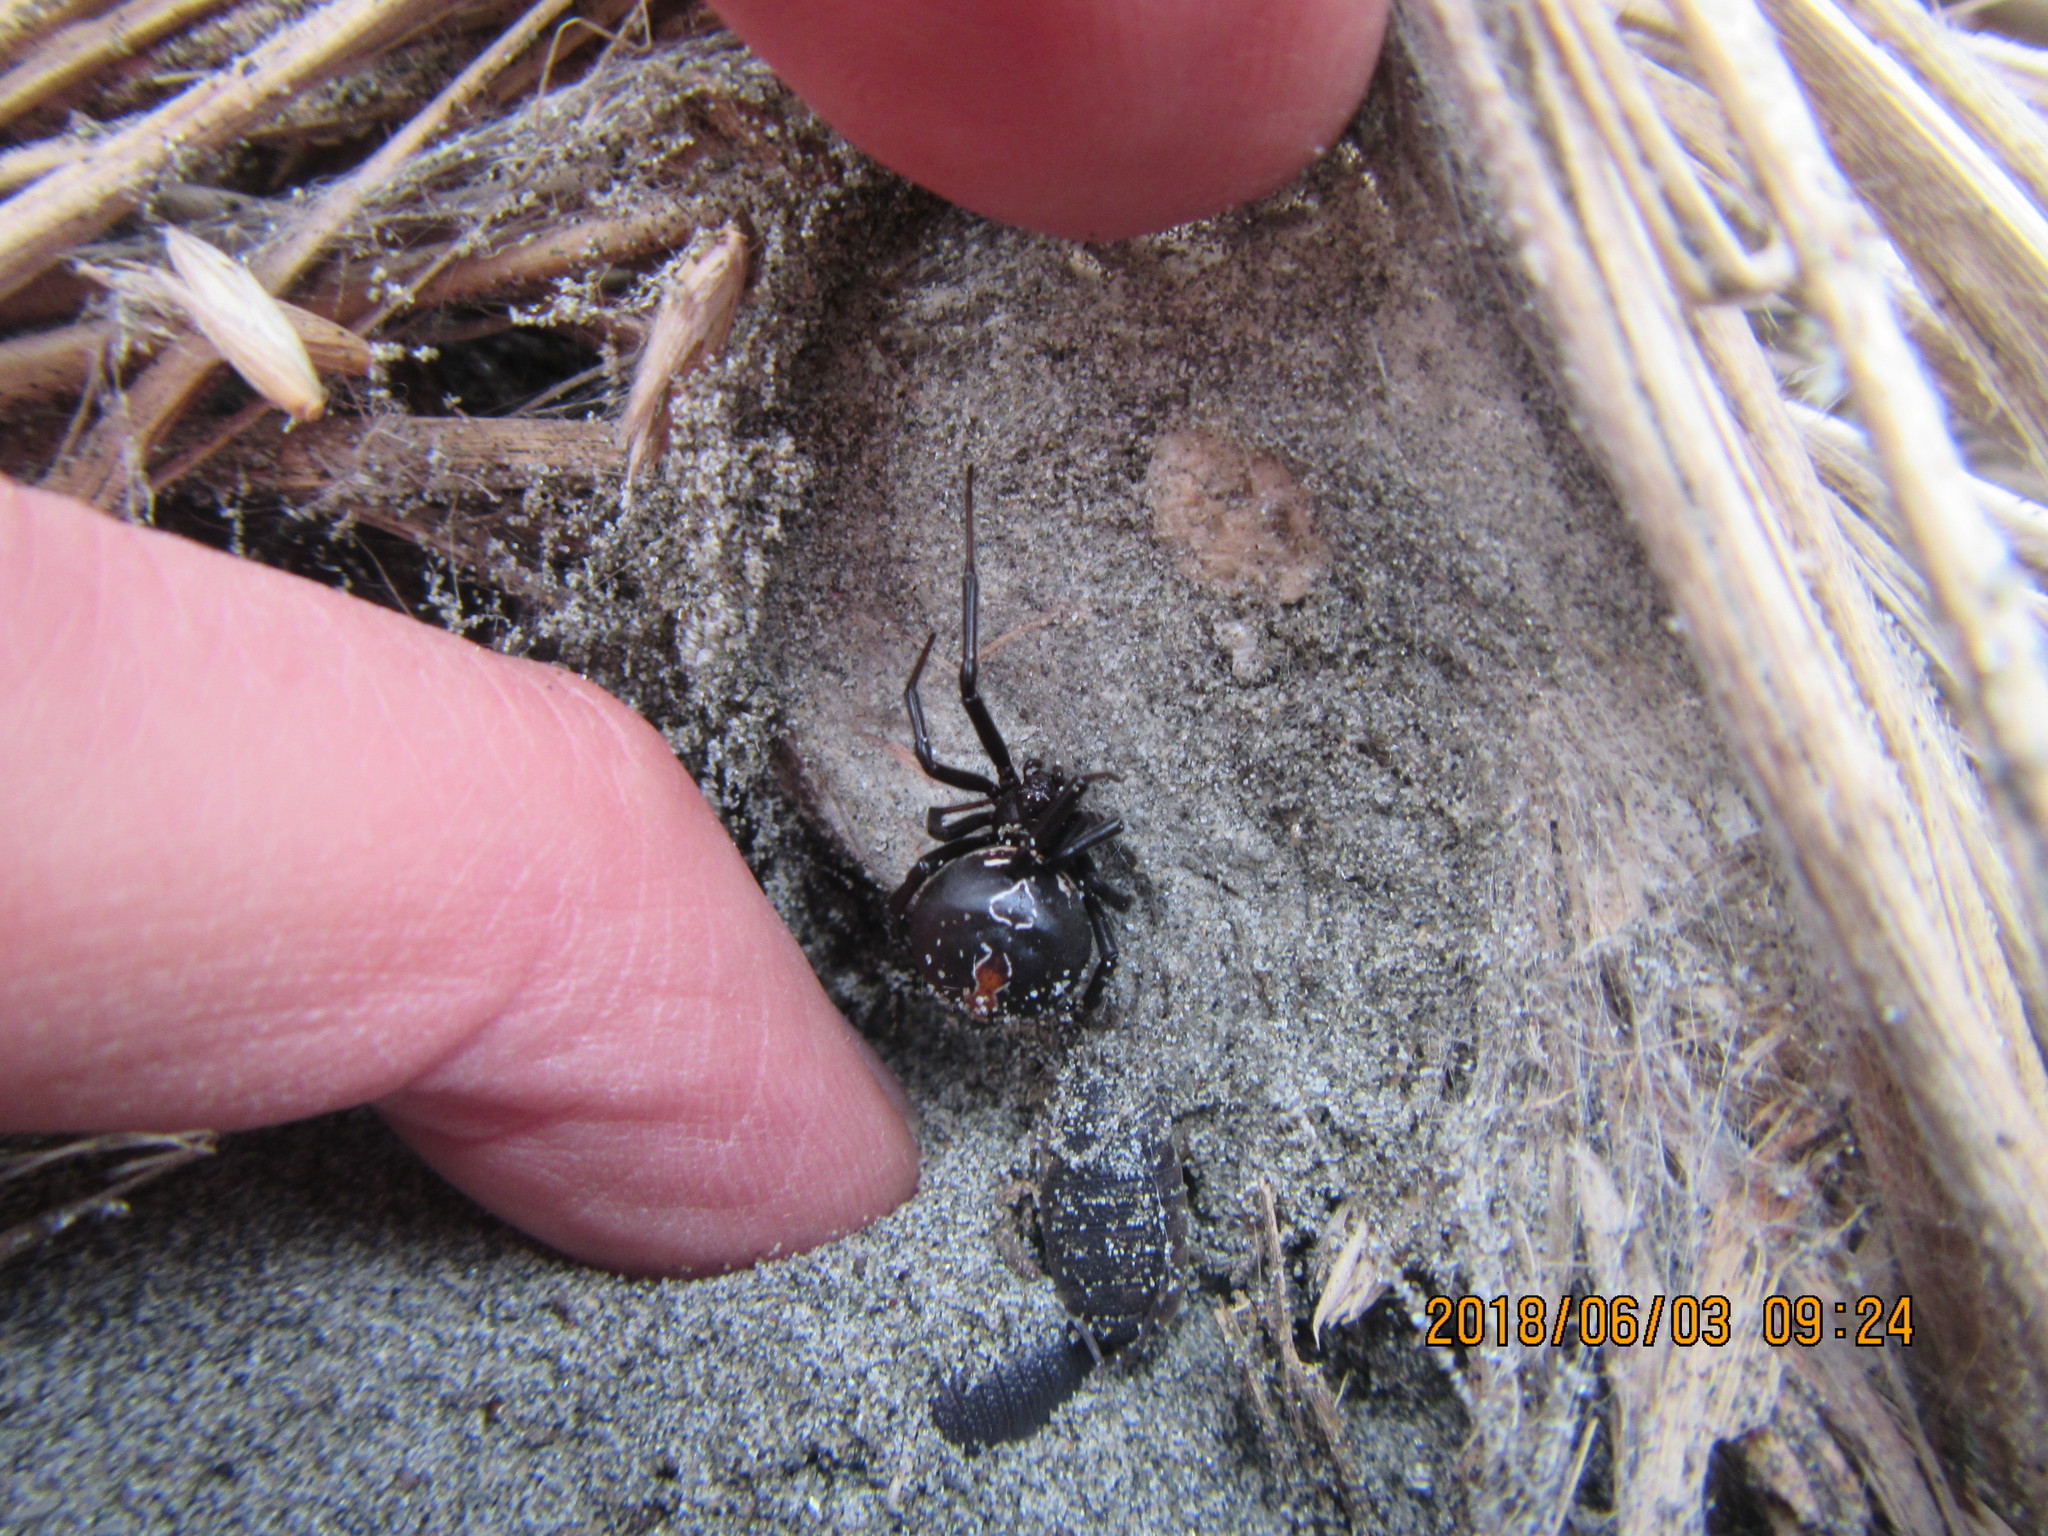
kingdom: Animalia
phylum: Arthropoda
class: Arachnida
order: Araneae
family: Theridiidae
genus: Latrodectus
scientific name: Latrodectus katipo
